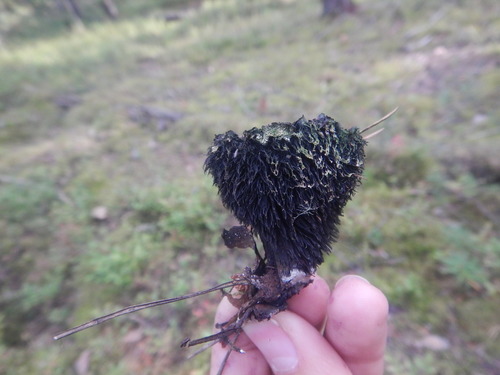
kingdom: Fungi
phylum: Basidiomycota
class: Agaricomycetes
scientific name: Agaricomycetes
